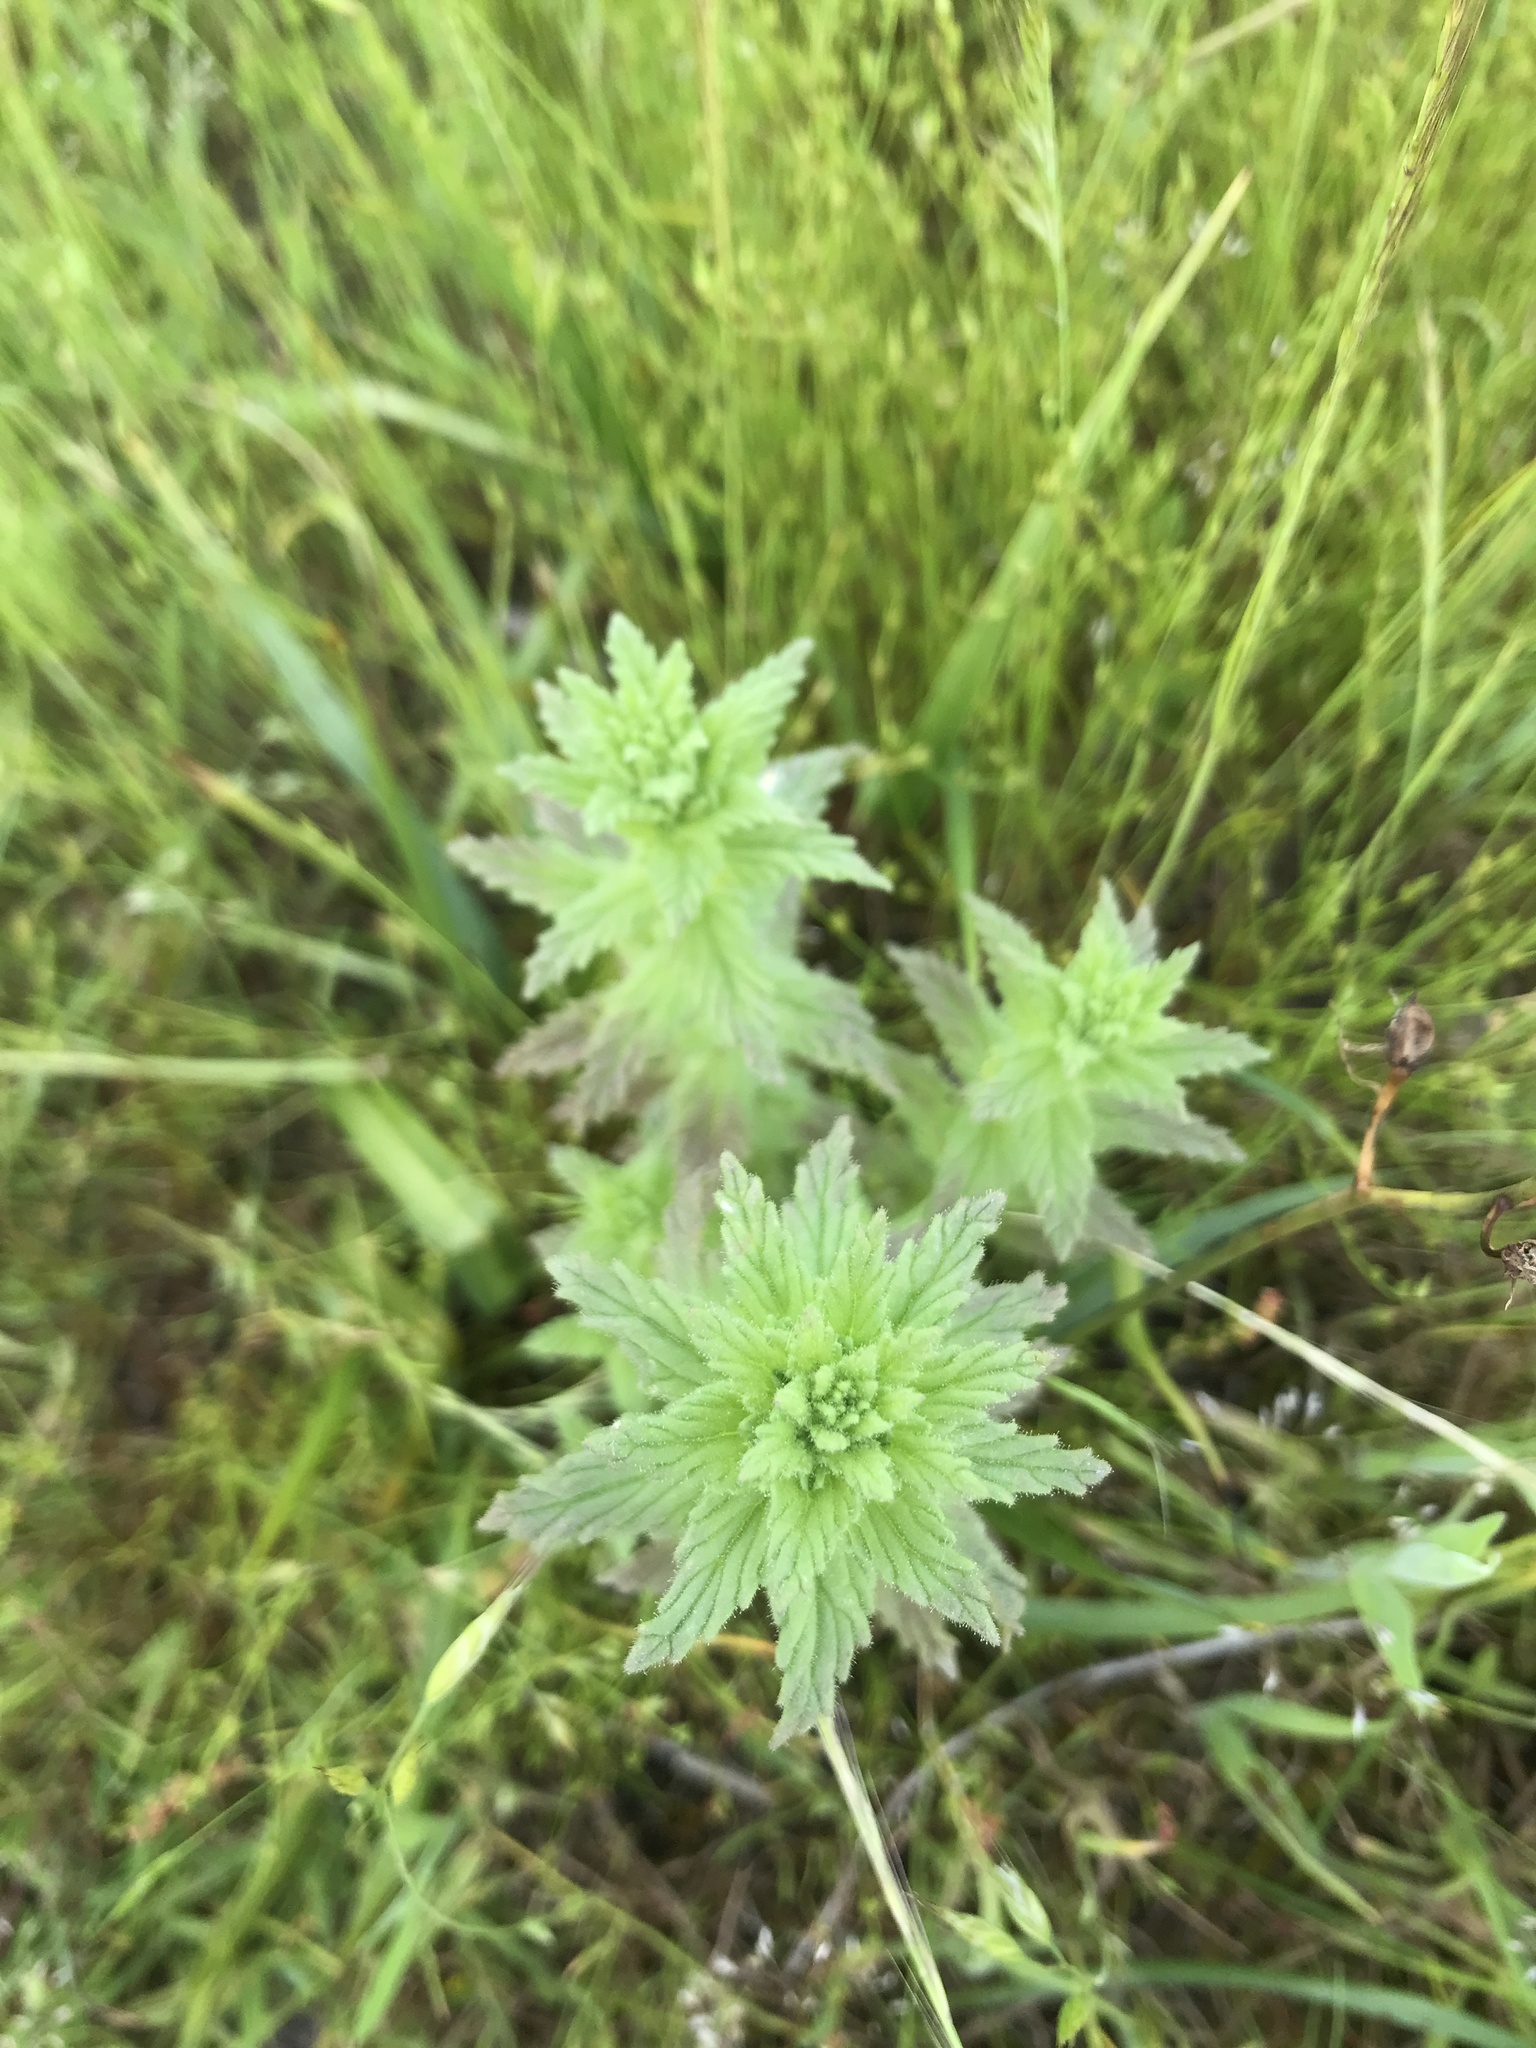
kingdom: Plantae
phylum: Tracheophyta
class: Magnoliopsida
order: Lamiales
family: Orobanchaceae
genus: Bellardia
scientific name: Bellardia viscosa
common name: Sticky parentucellia
